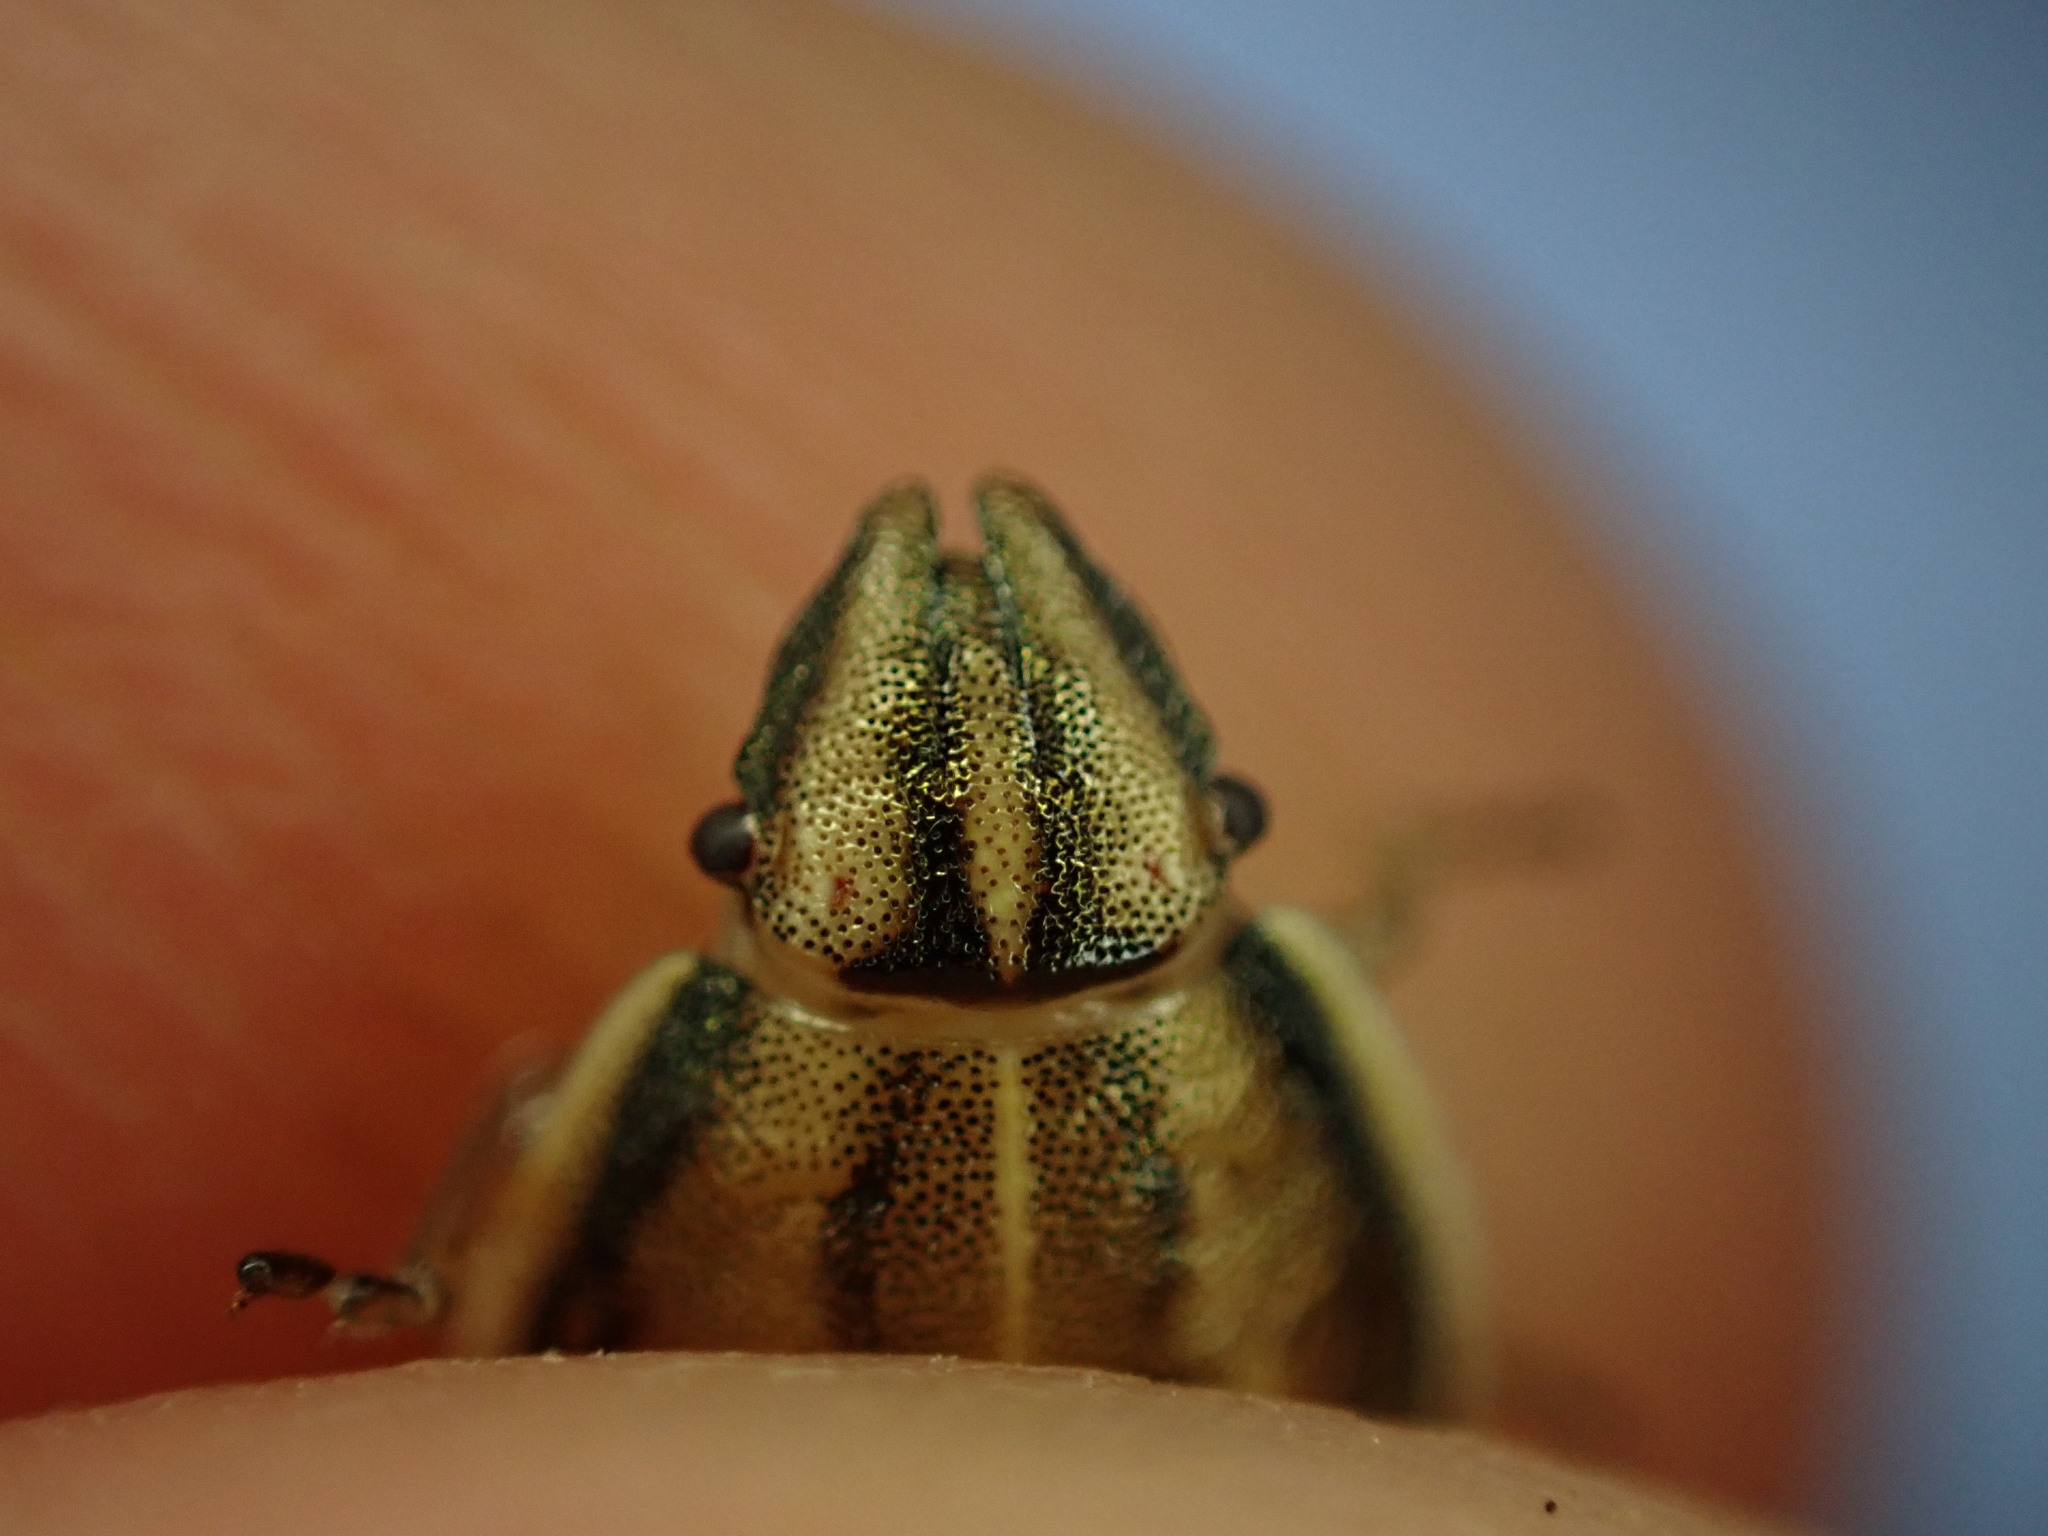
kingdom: Animalia
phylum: Arthropoda
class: Insecta
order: Hemiptera
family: Pentatomidae
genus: Aelia
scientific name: Aelia acuminata
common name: Bishop's mitre
